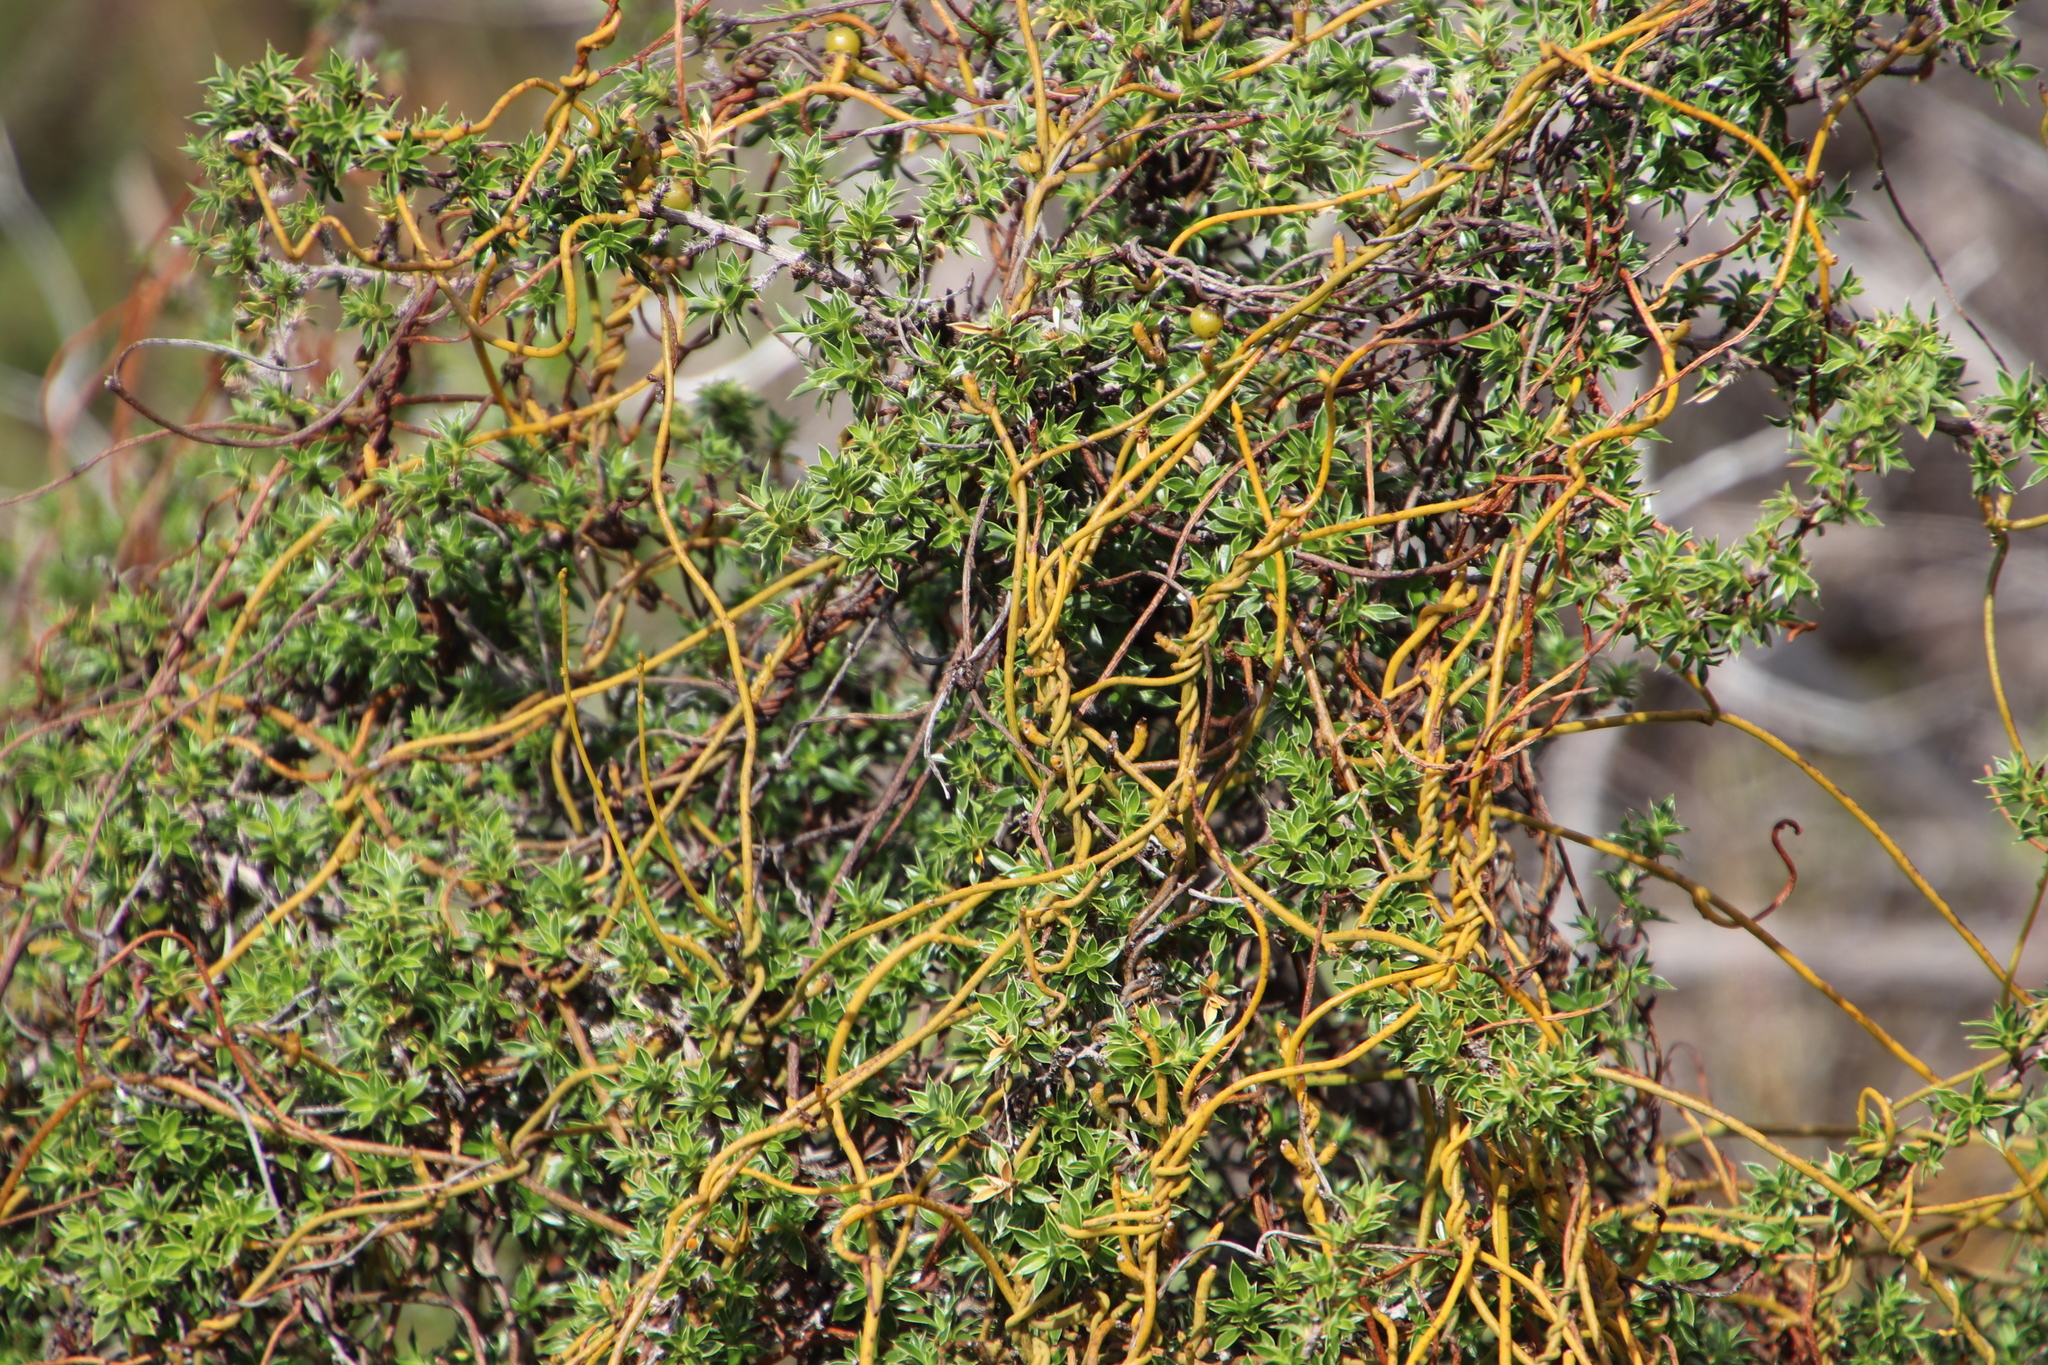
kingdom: Plantae
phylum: Tracheophyta
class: Magnoliopsida
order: Rosales
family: Rosaceae
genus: Cliffortia
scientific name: Cliffortia tridentata
